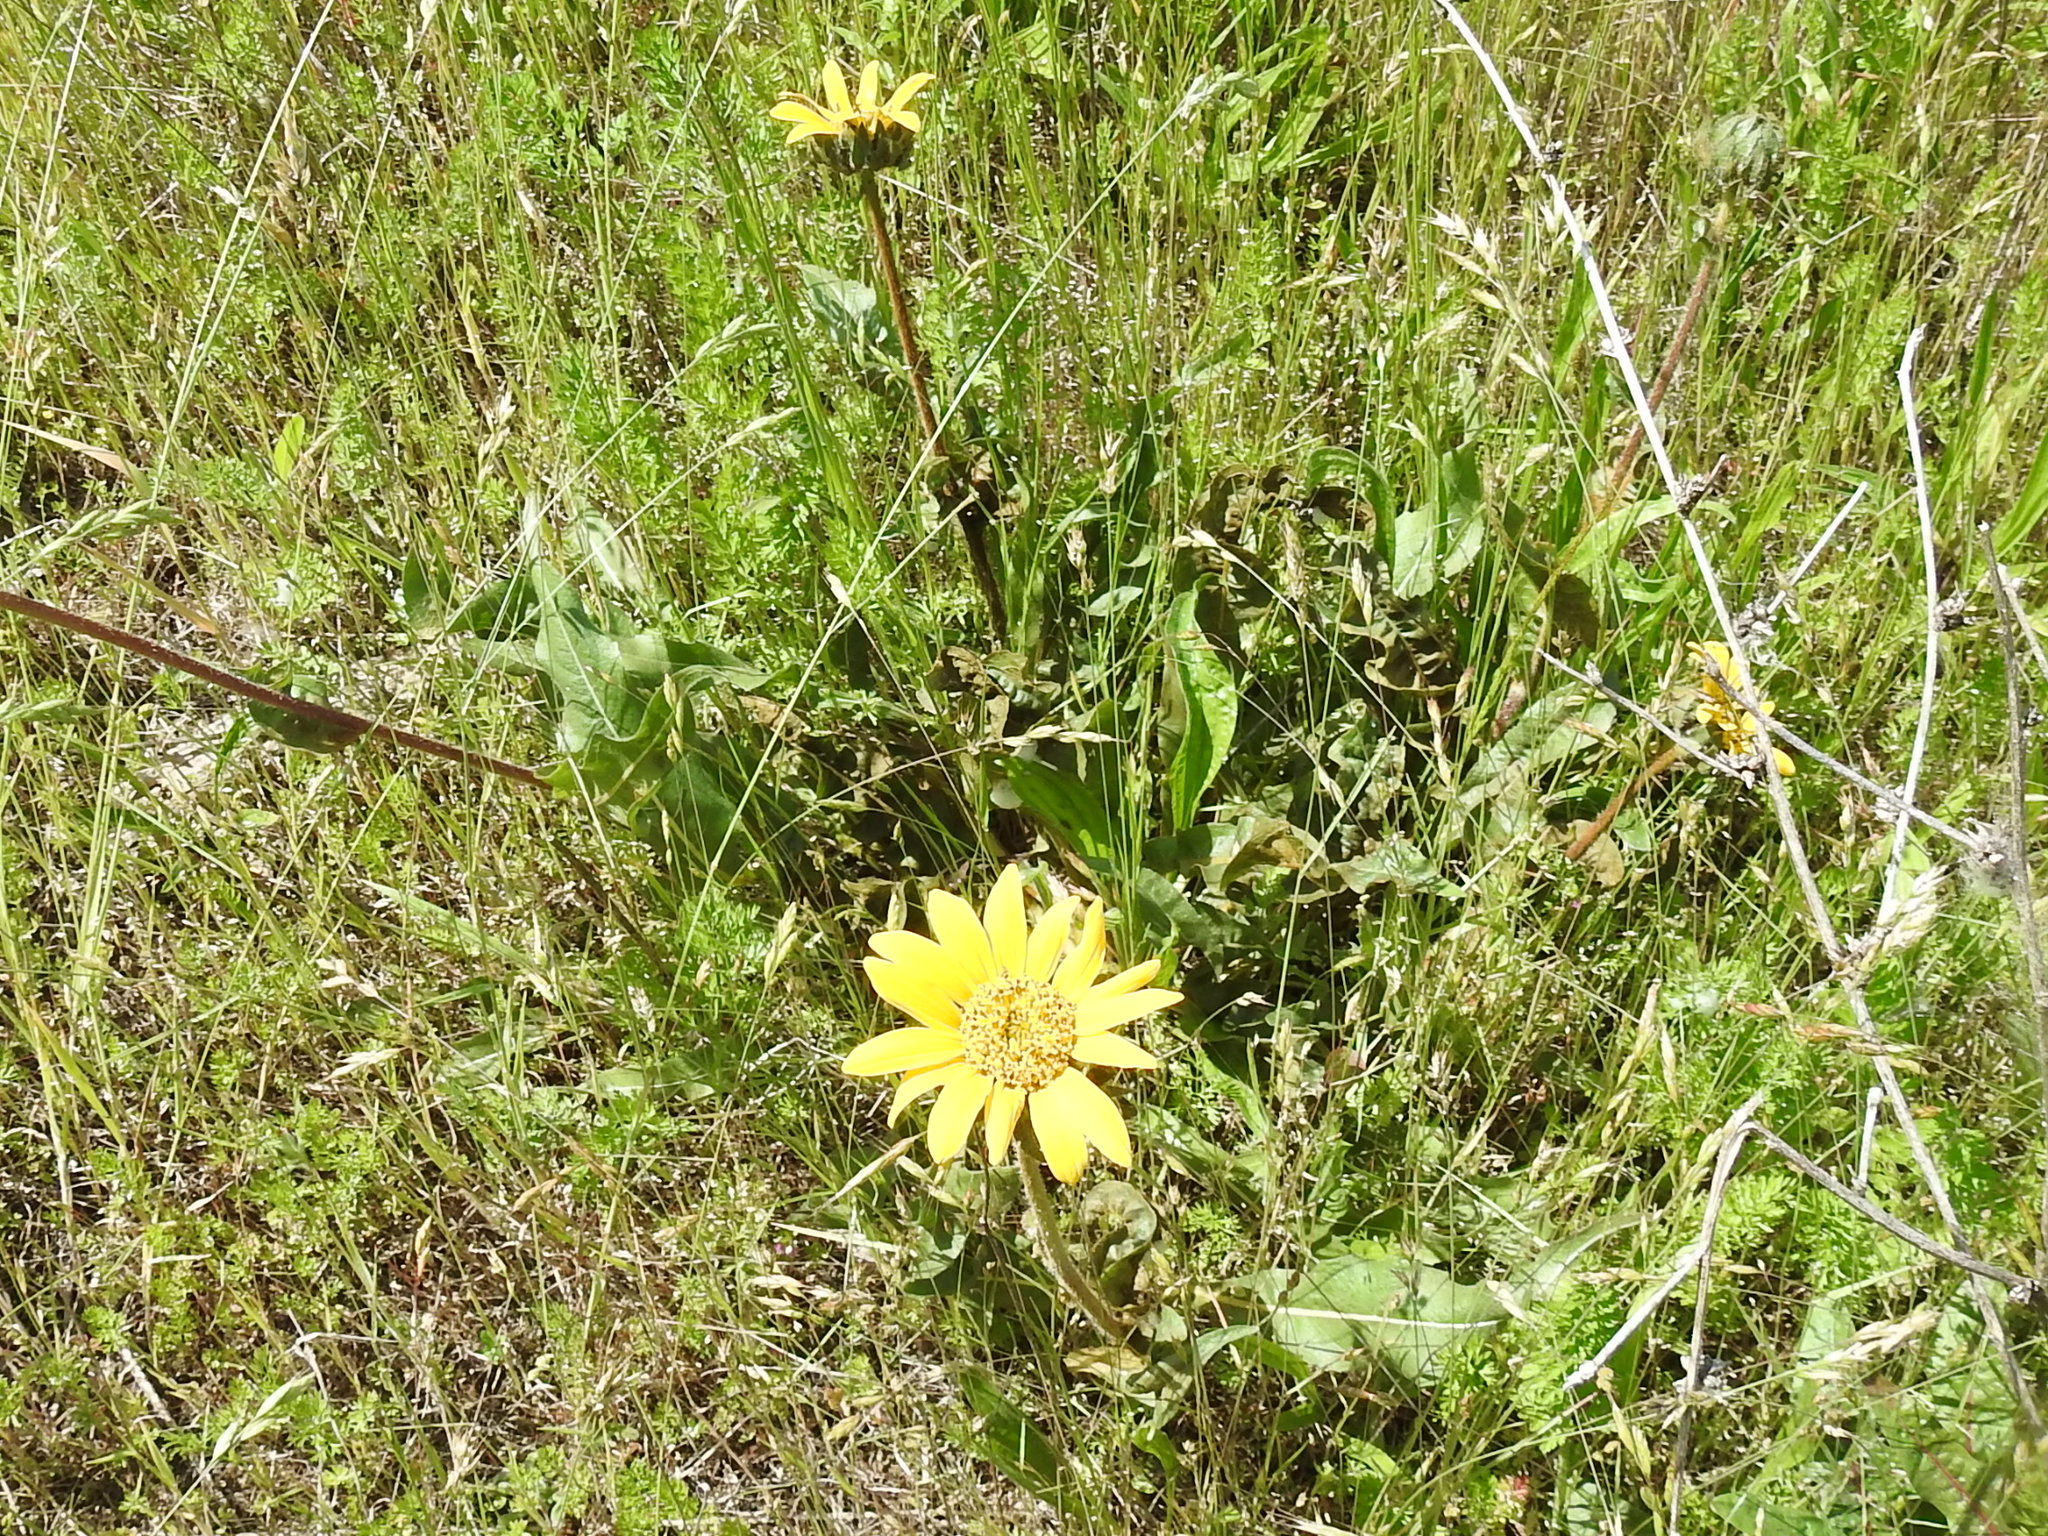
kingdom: Plantae
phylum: Tracheophyta
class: Magnoliopsida
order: Asterales
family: Asteraceae
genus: Wyethia
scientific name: Wyethia angustifolia
